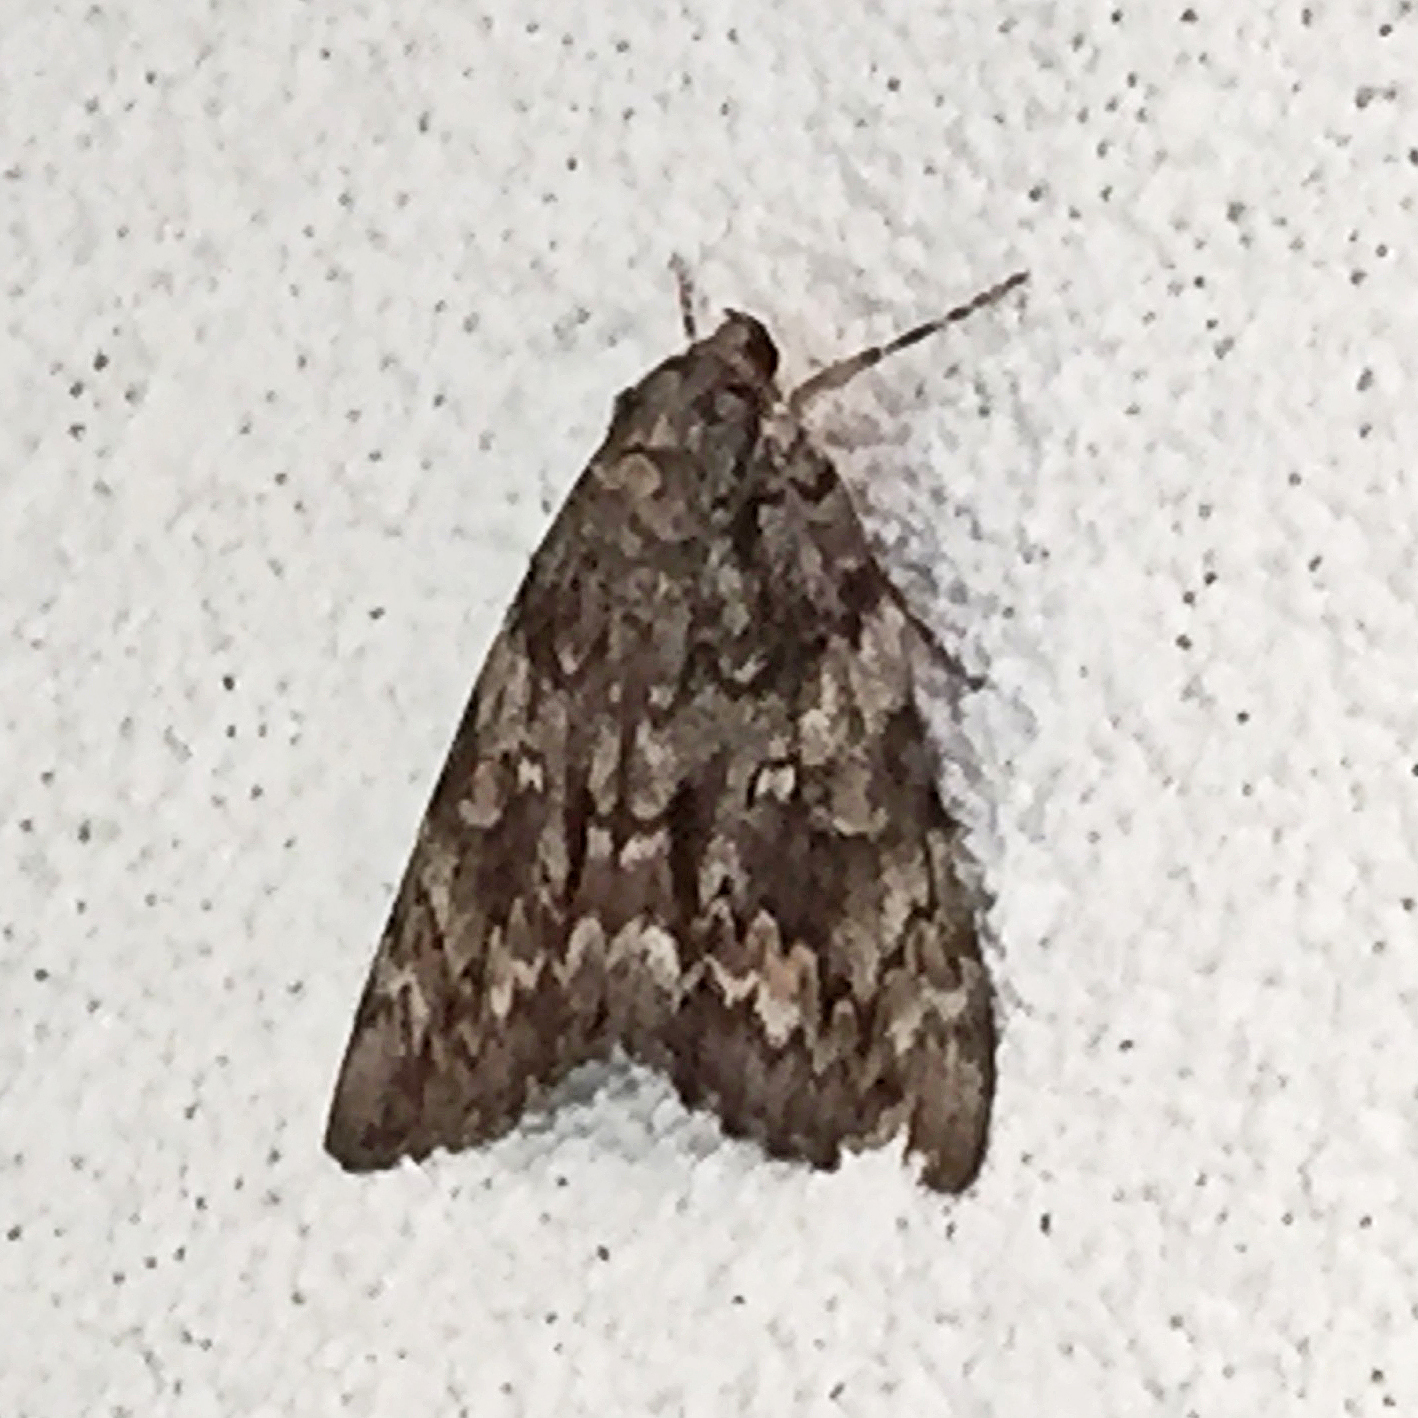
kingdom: Animalia
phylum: Arthropoda
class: Insecta
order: Lepidoptera
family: Erebidae
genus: Catocala
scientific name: Catocala palaeogama
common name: Oldwife underwing
